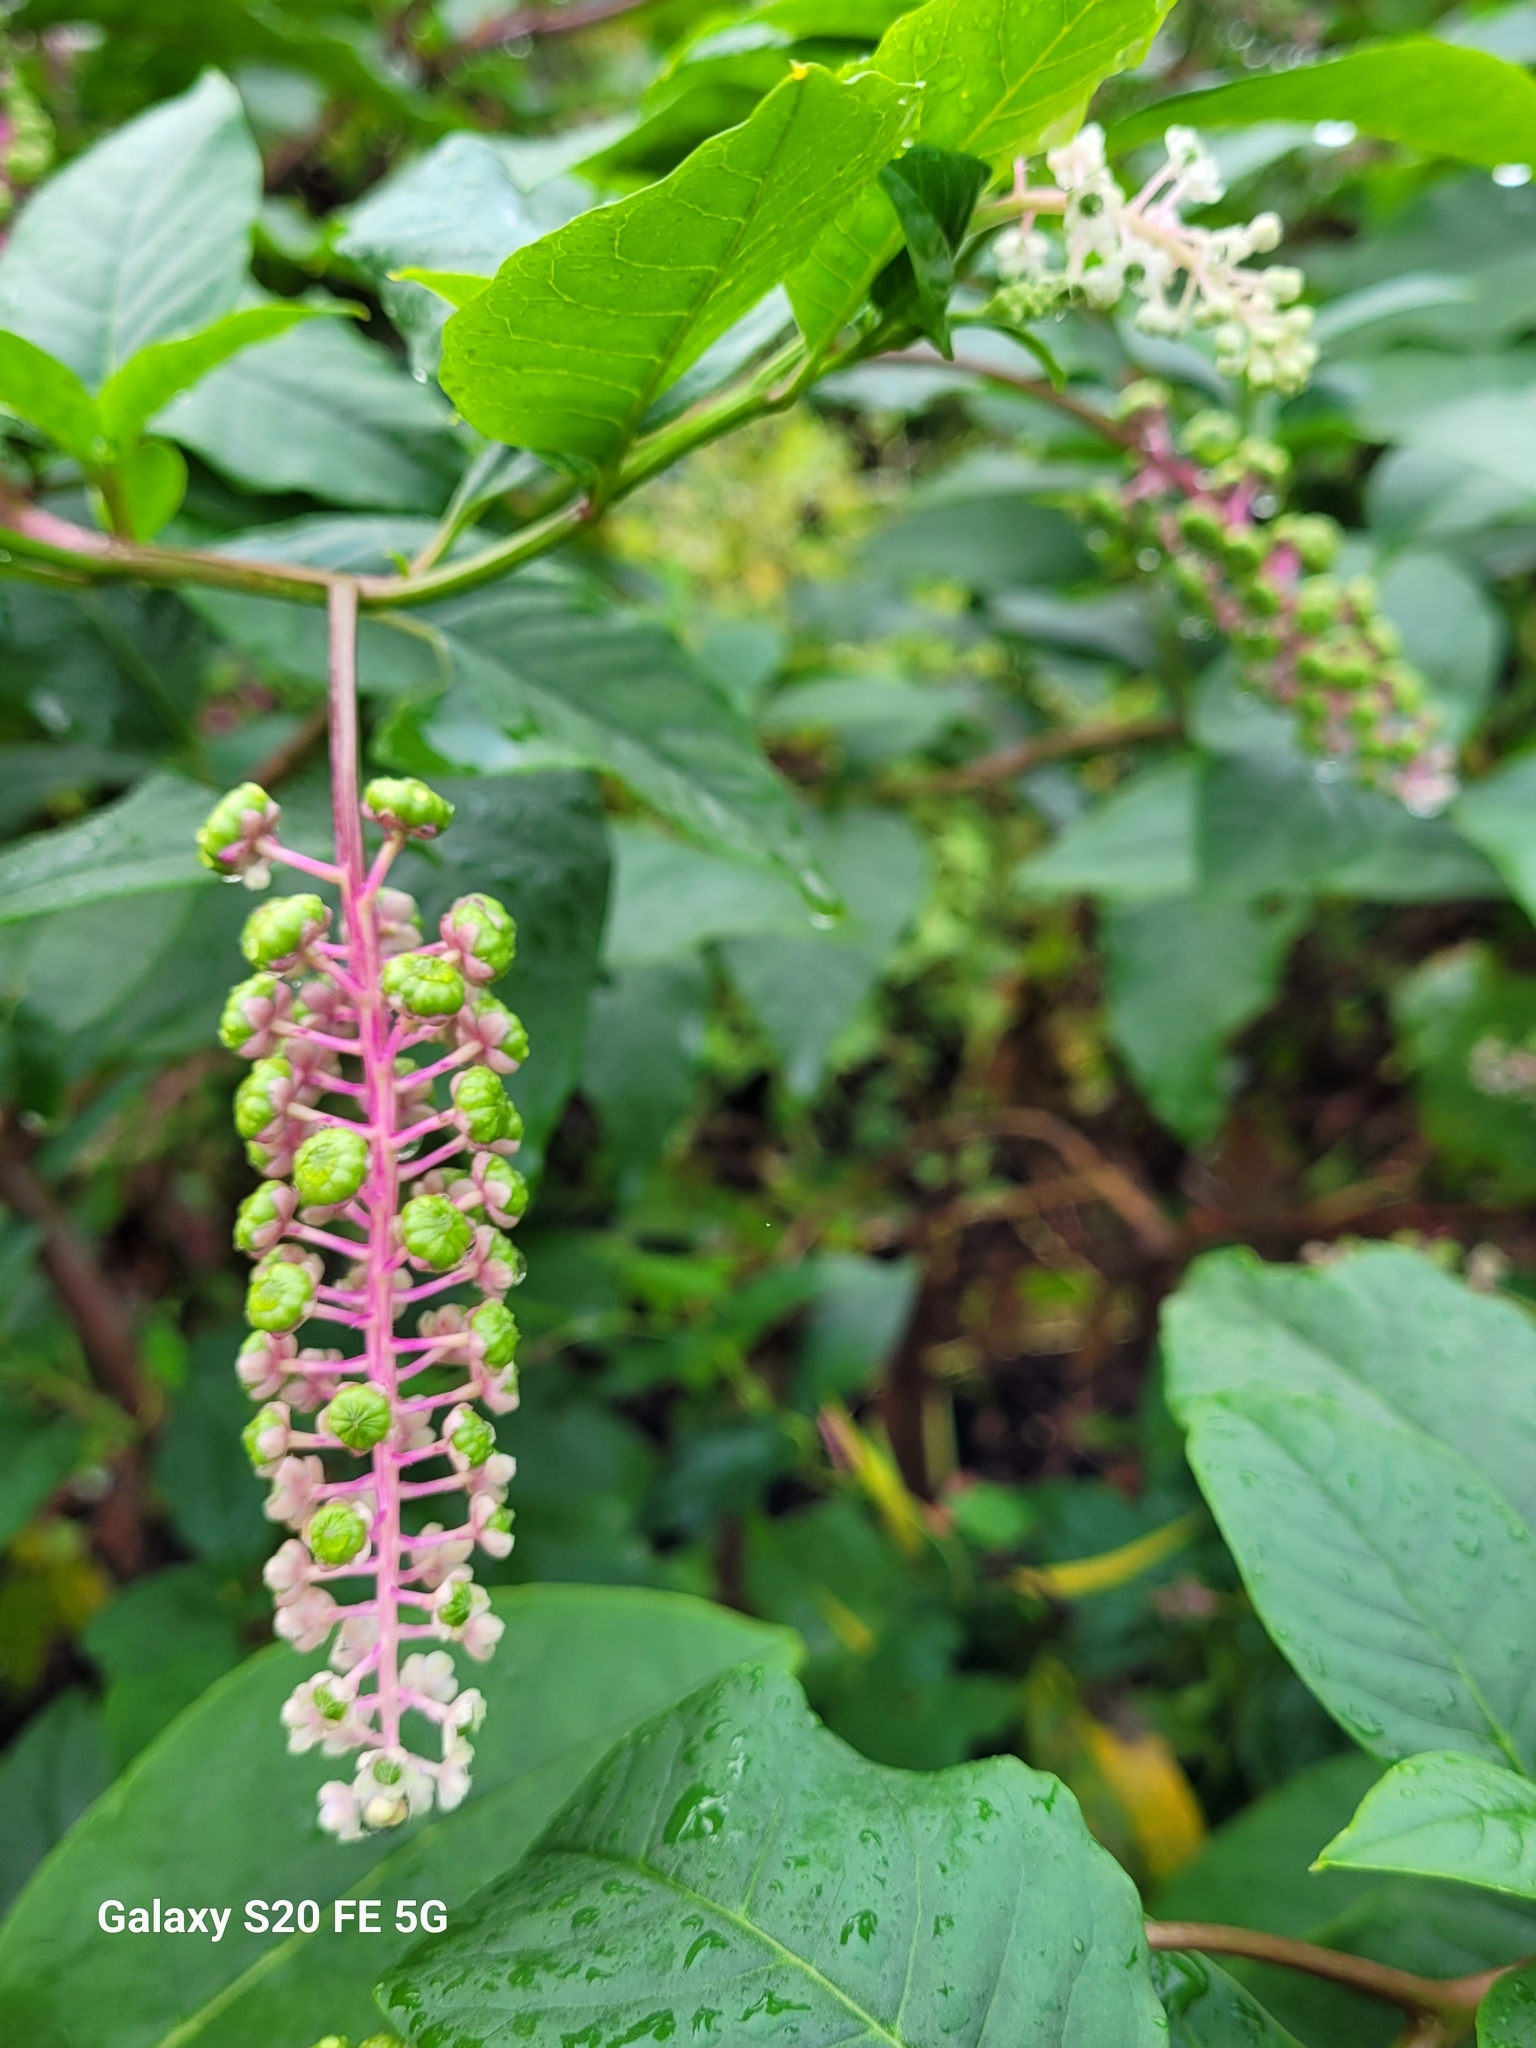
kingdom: Plantae
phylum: Tracheophyta
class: Magnoliopsida
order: Caryophyllales
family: Phytolaccaceae
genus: Phytolacca
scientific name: Phytolacca americana
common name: American pokeweed
